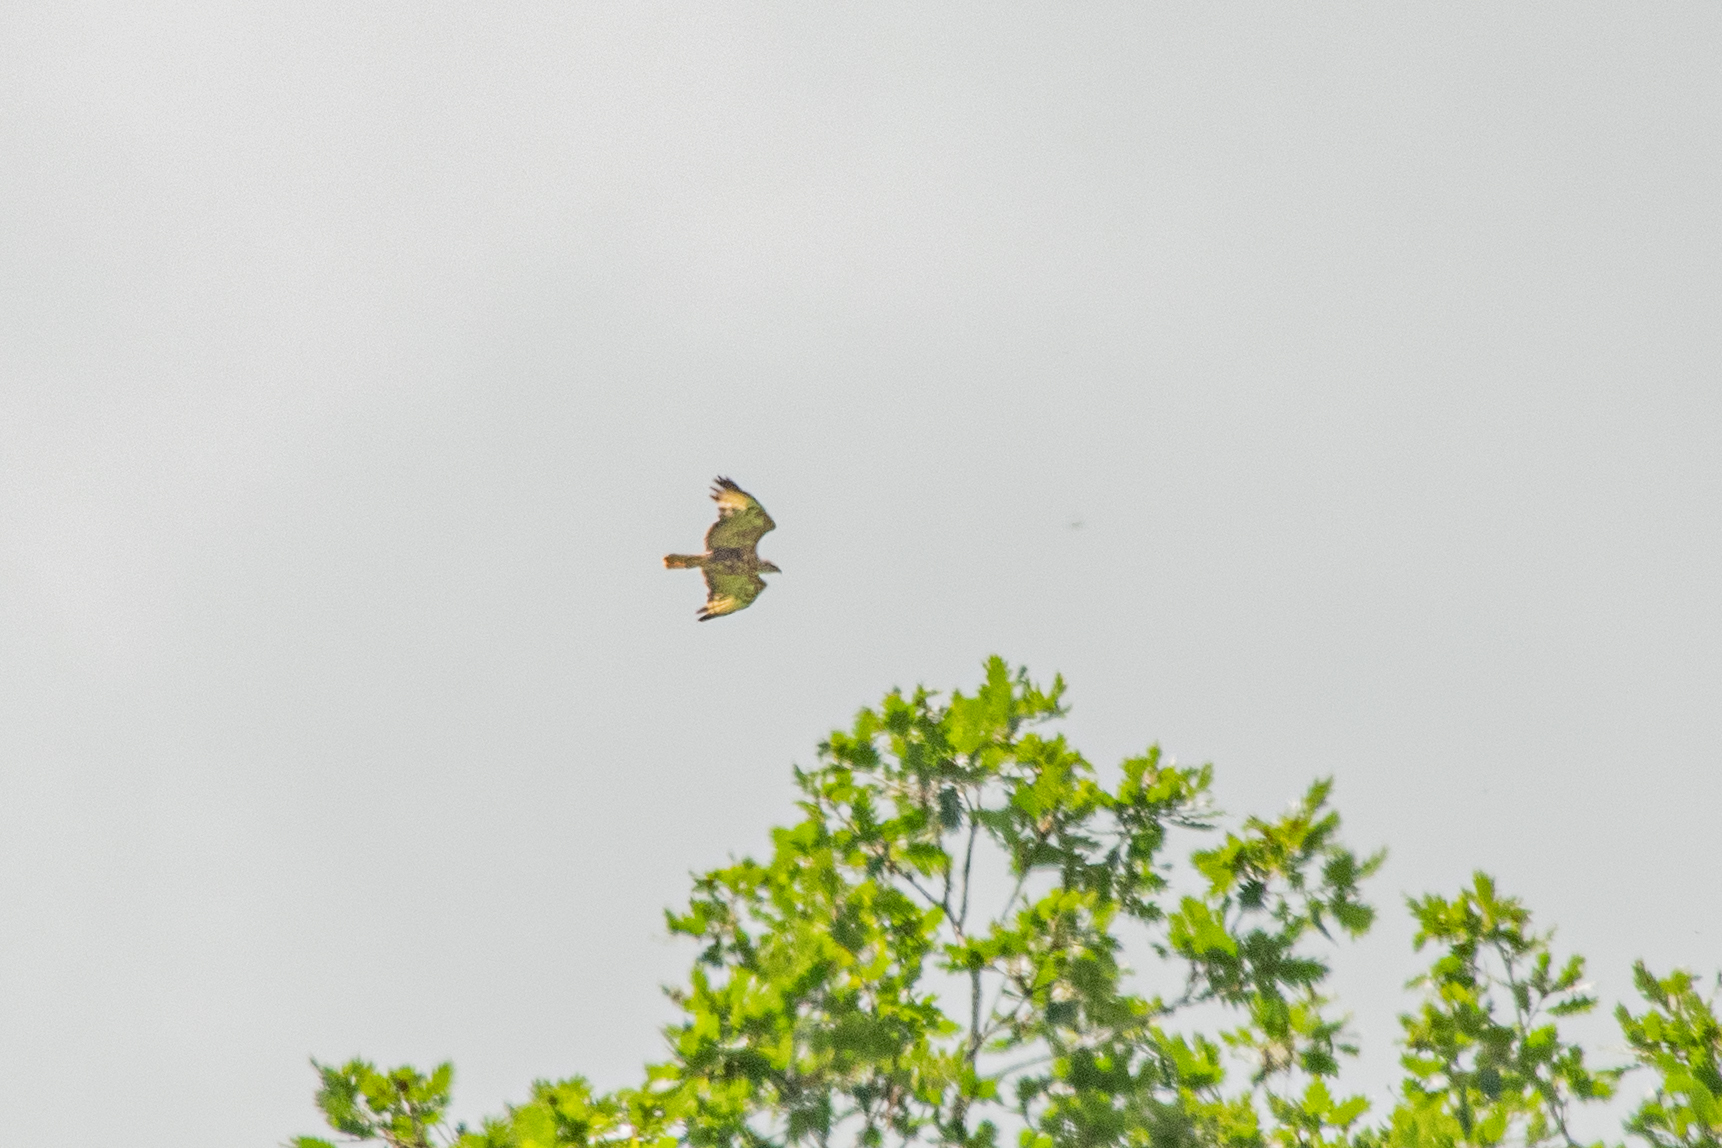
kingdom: Animalia
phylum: Chordata
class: Aves
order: Accipitriformes
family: Accipitridae
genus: Buteo
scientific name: Buteo rufinus
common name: Long-legged buzzard
